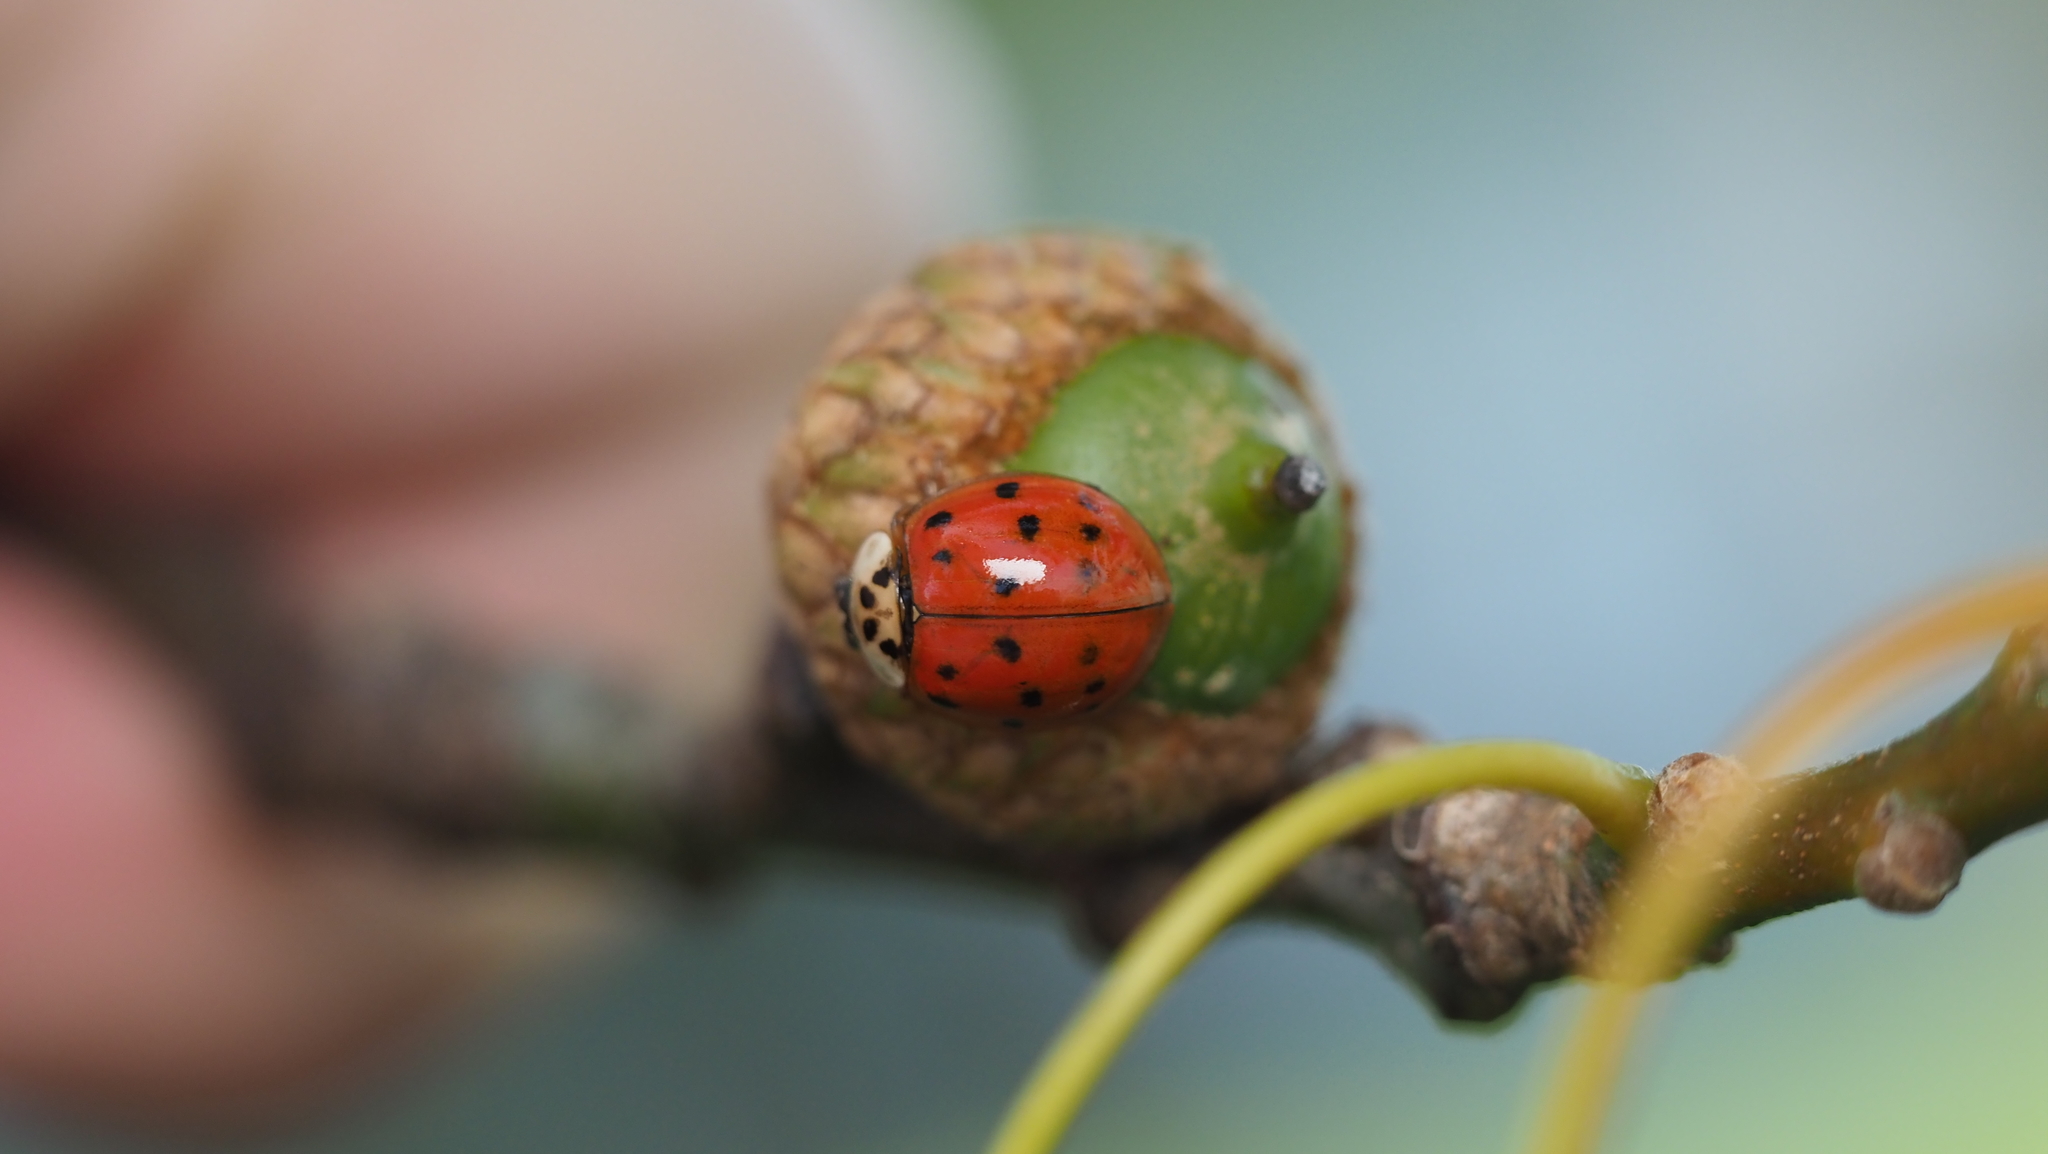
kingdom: Animalia
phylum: Arthropoda
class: Insecta
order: Coleoptera
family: Coccinellidae
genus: Harmonia
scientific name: Harmonia axyridis
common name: Harlequin ladybird
